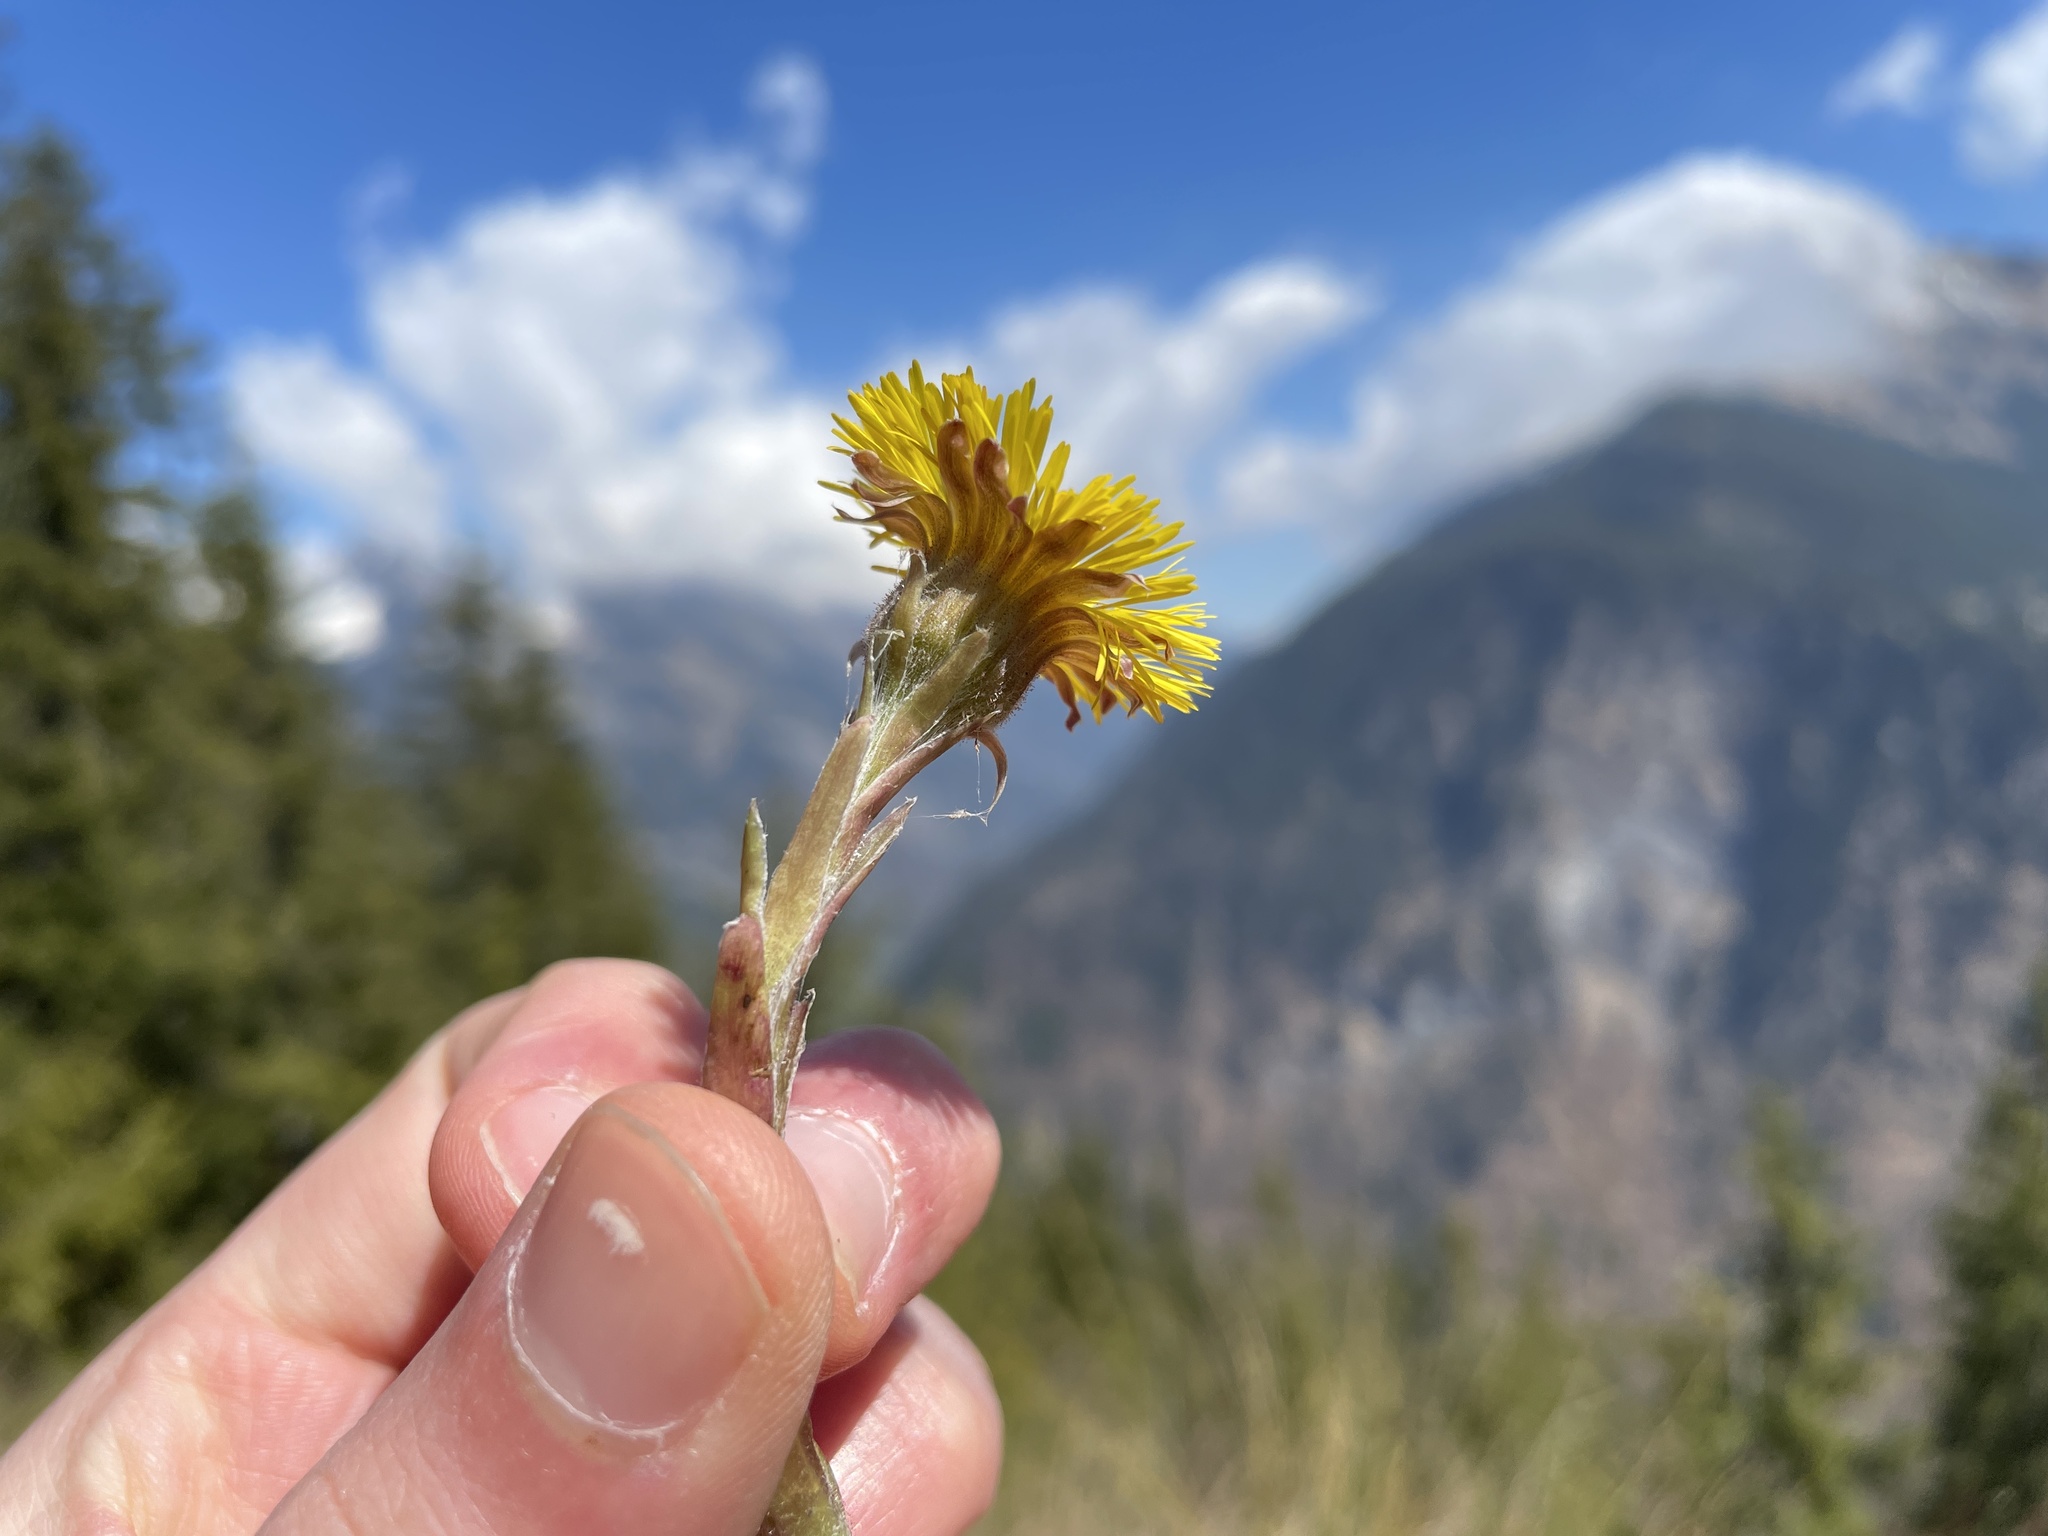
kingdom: Plantae
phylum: Tracheophyta
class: Magnoliopsida
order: Asterales
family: Asteraceae
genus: Tussilago
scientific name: Tussilago farfara
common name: Coltsfoot
